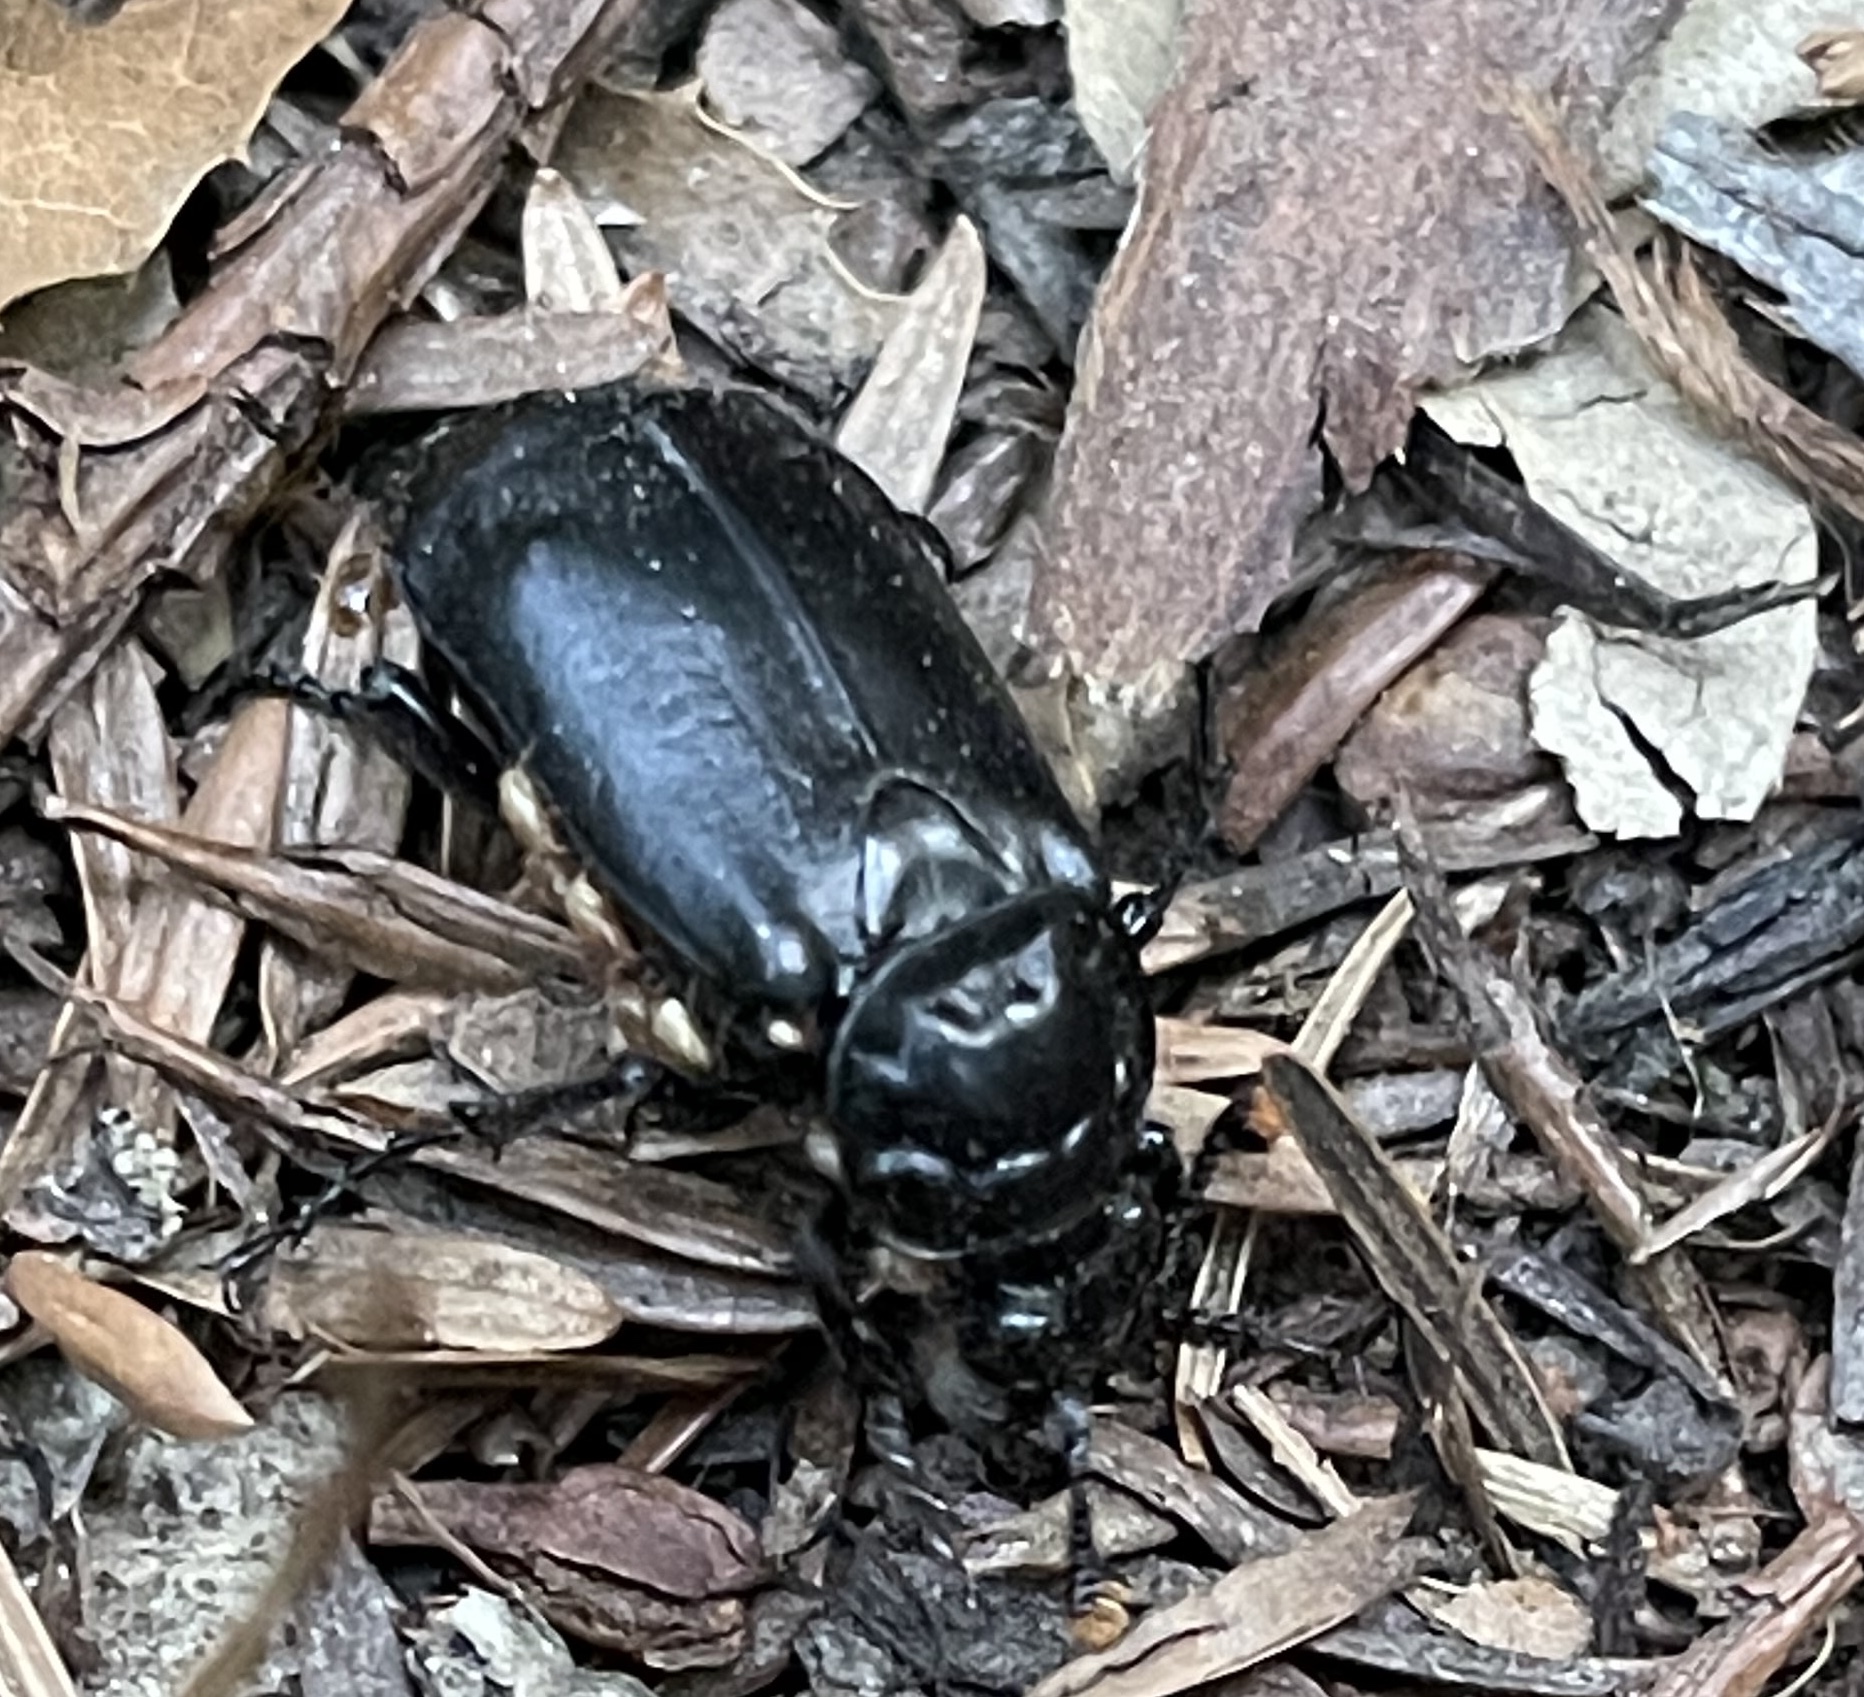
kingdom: Animalia
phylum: Arthropoda
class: Insecta
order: Coleoptera
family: Staphylinidae
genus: Nicrophorus
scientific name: Nicrophorus nigrita
